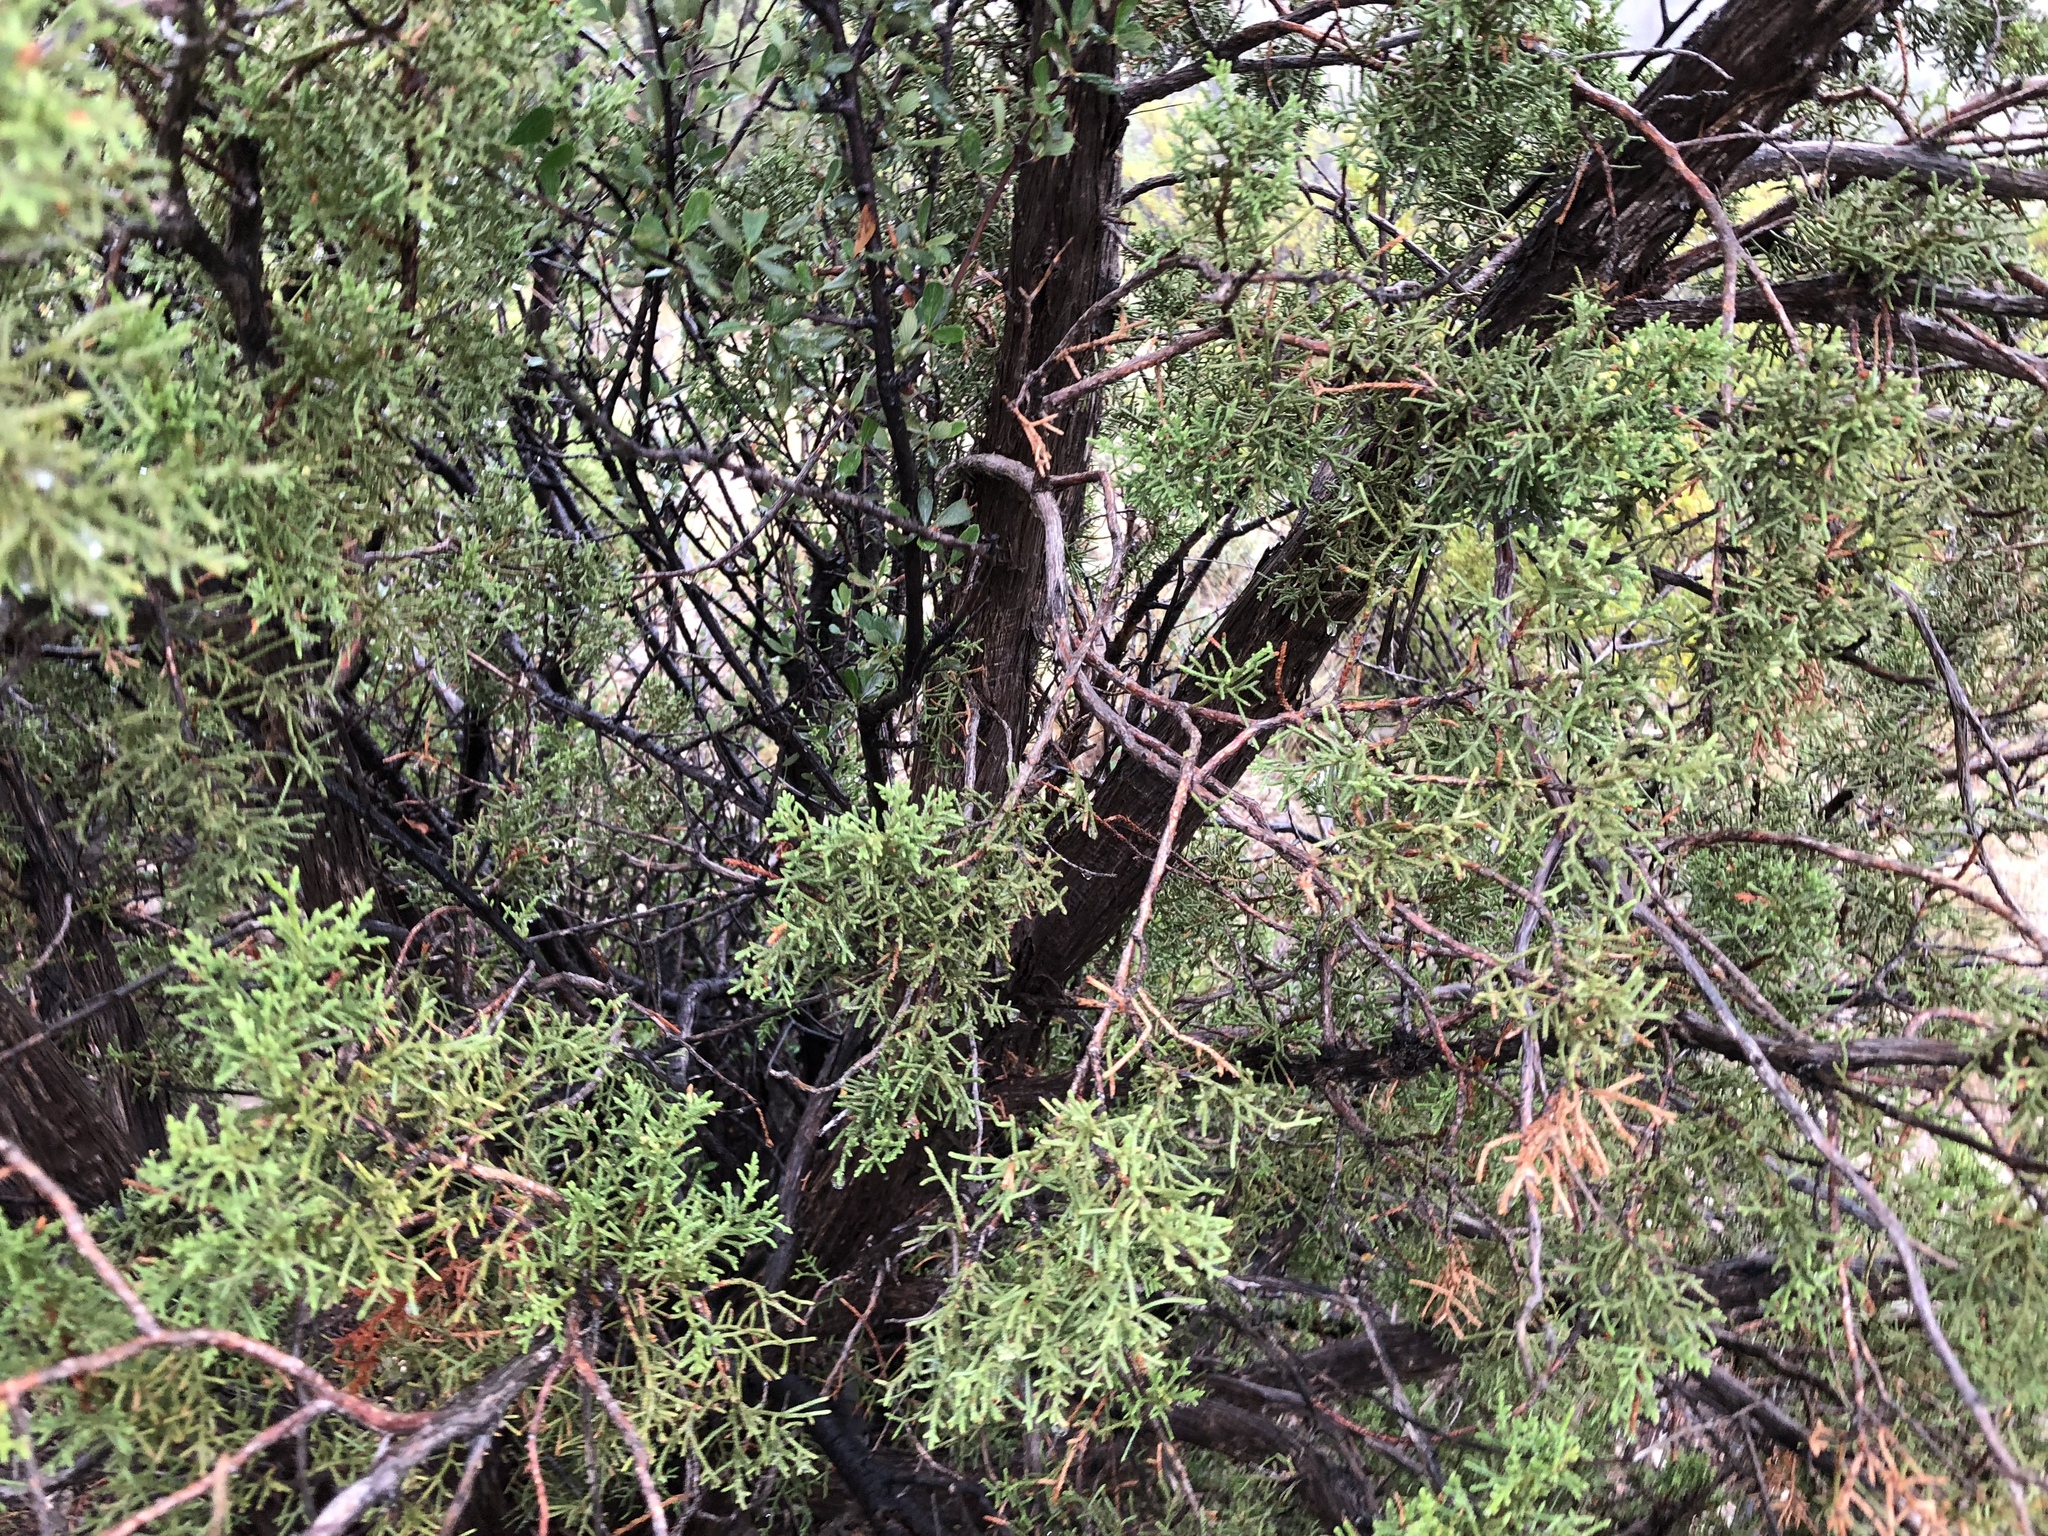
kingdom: Plantae
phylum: Tracheophyta
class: Pinopsida
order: Pinales
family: Cupressaceae
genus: Juniperus
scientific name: Juniperus monosperma
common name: One-seed juniper
